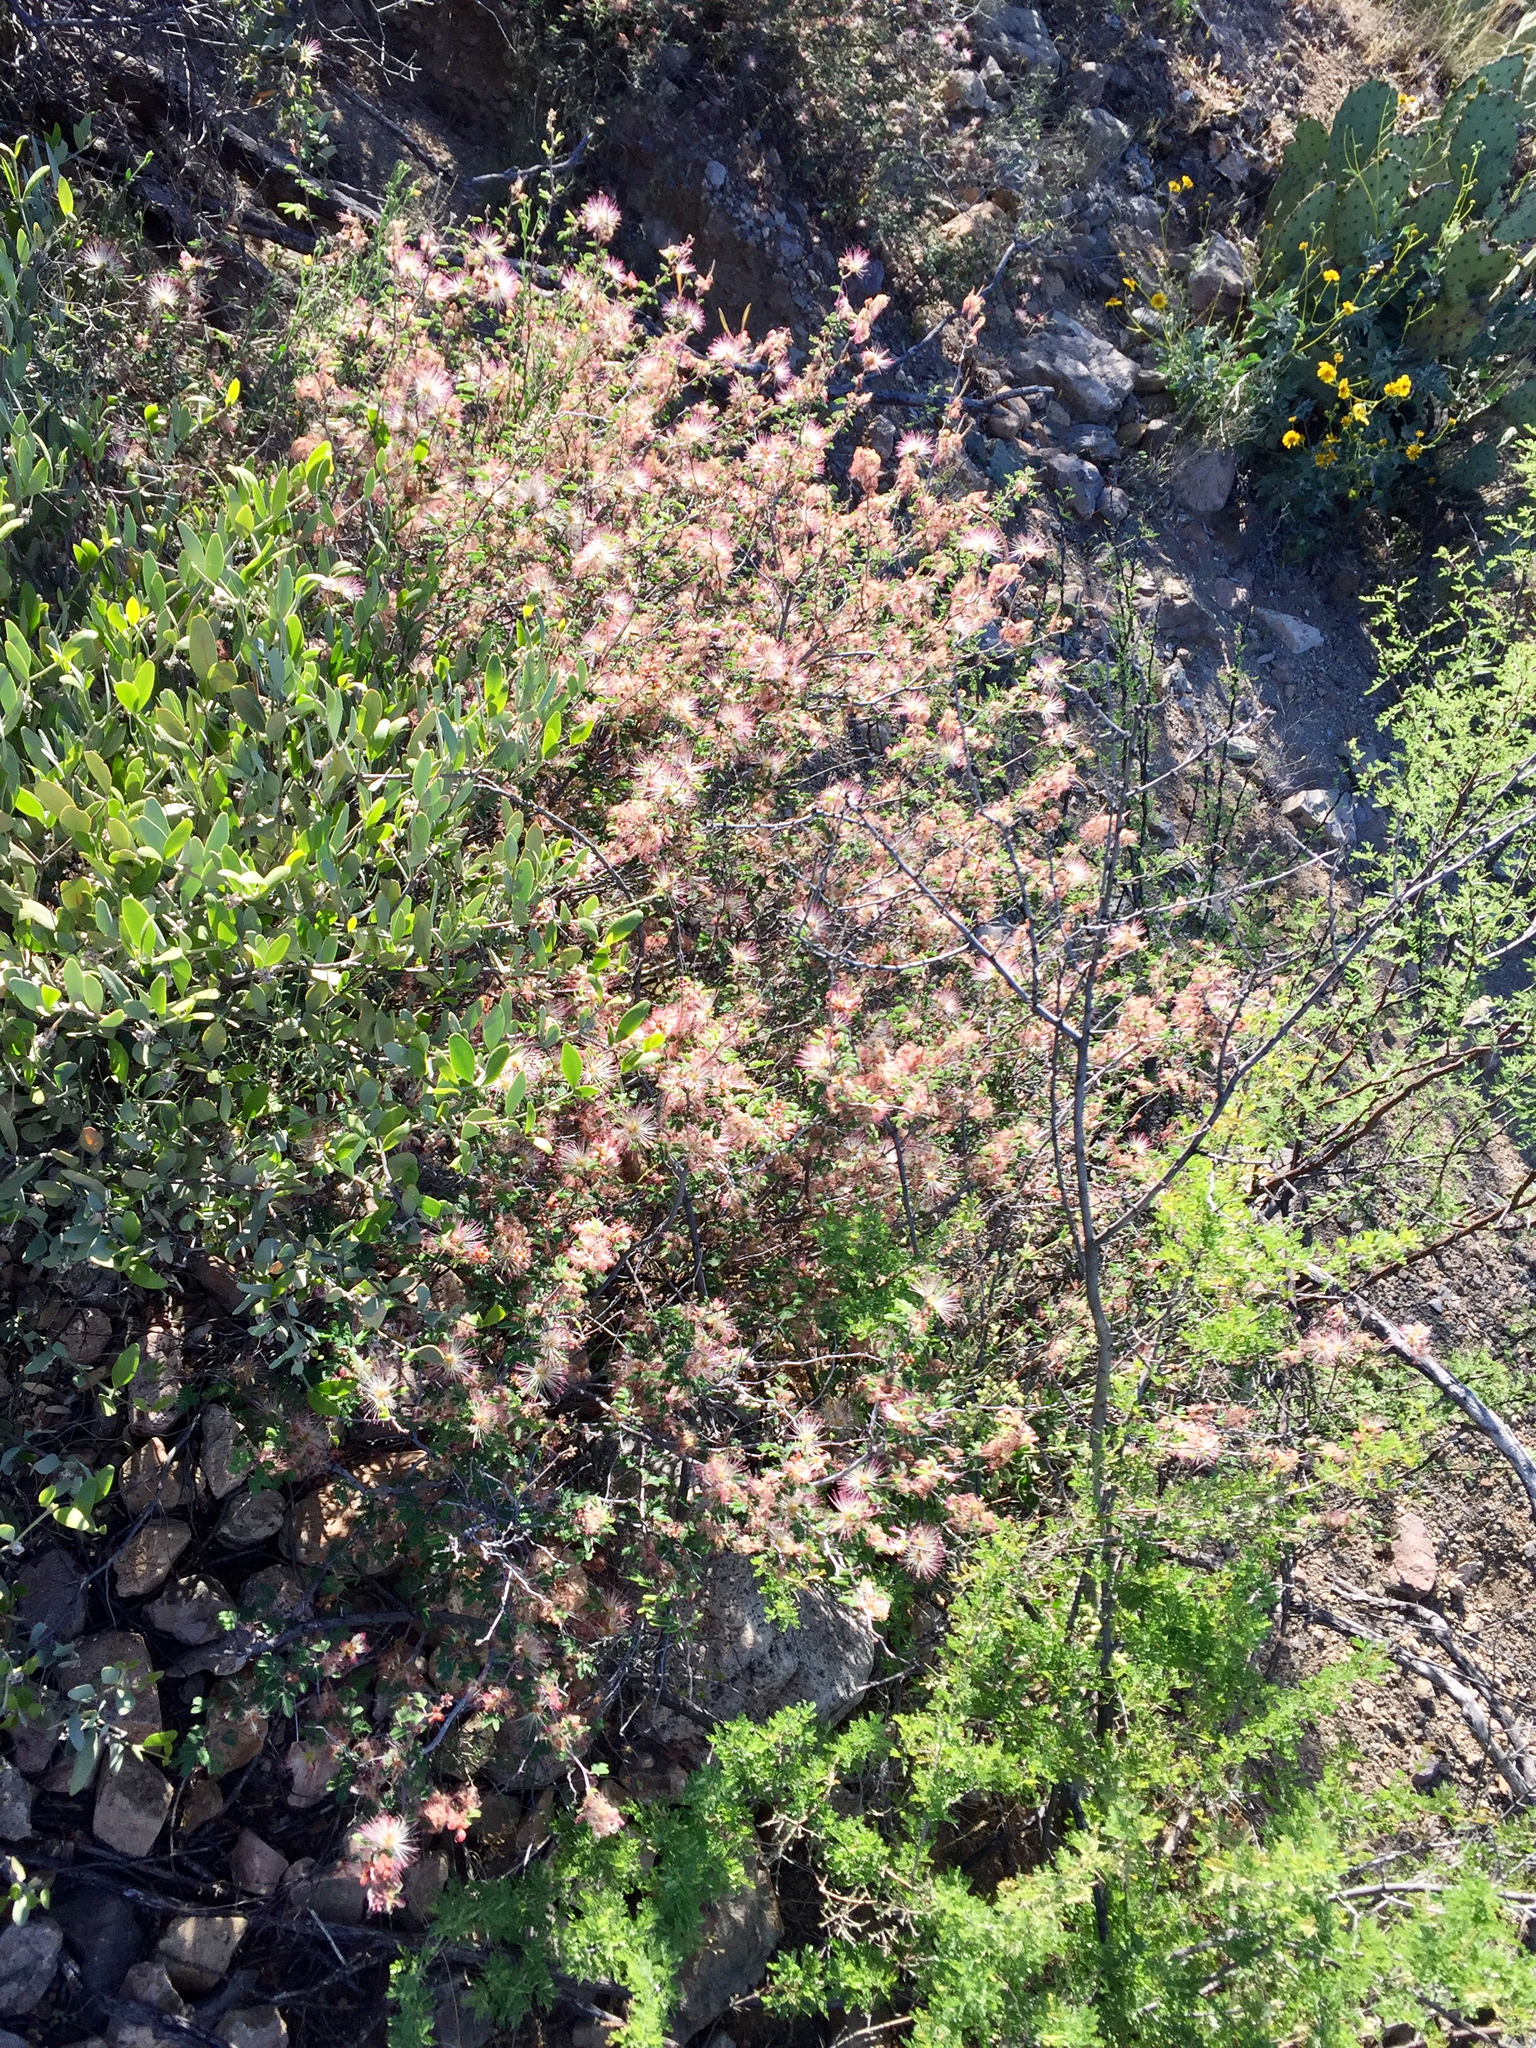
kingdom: Plantae
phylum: Tracheophyta
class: Magnoliopsida
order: Fabales
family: Fabaceae
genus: Calliandra
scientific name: Calliandra eriophylla
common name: Fairy-duster
